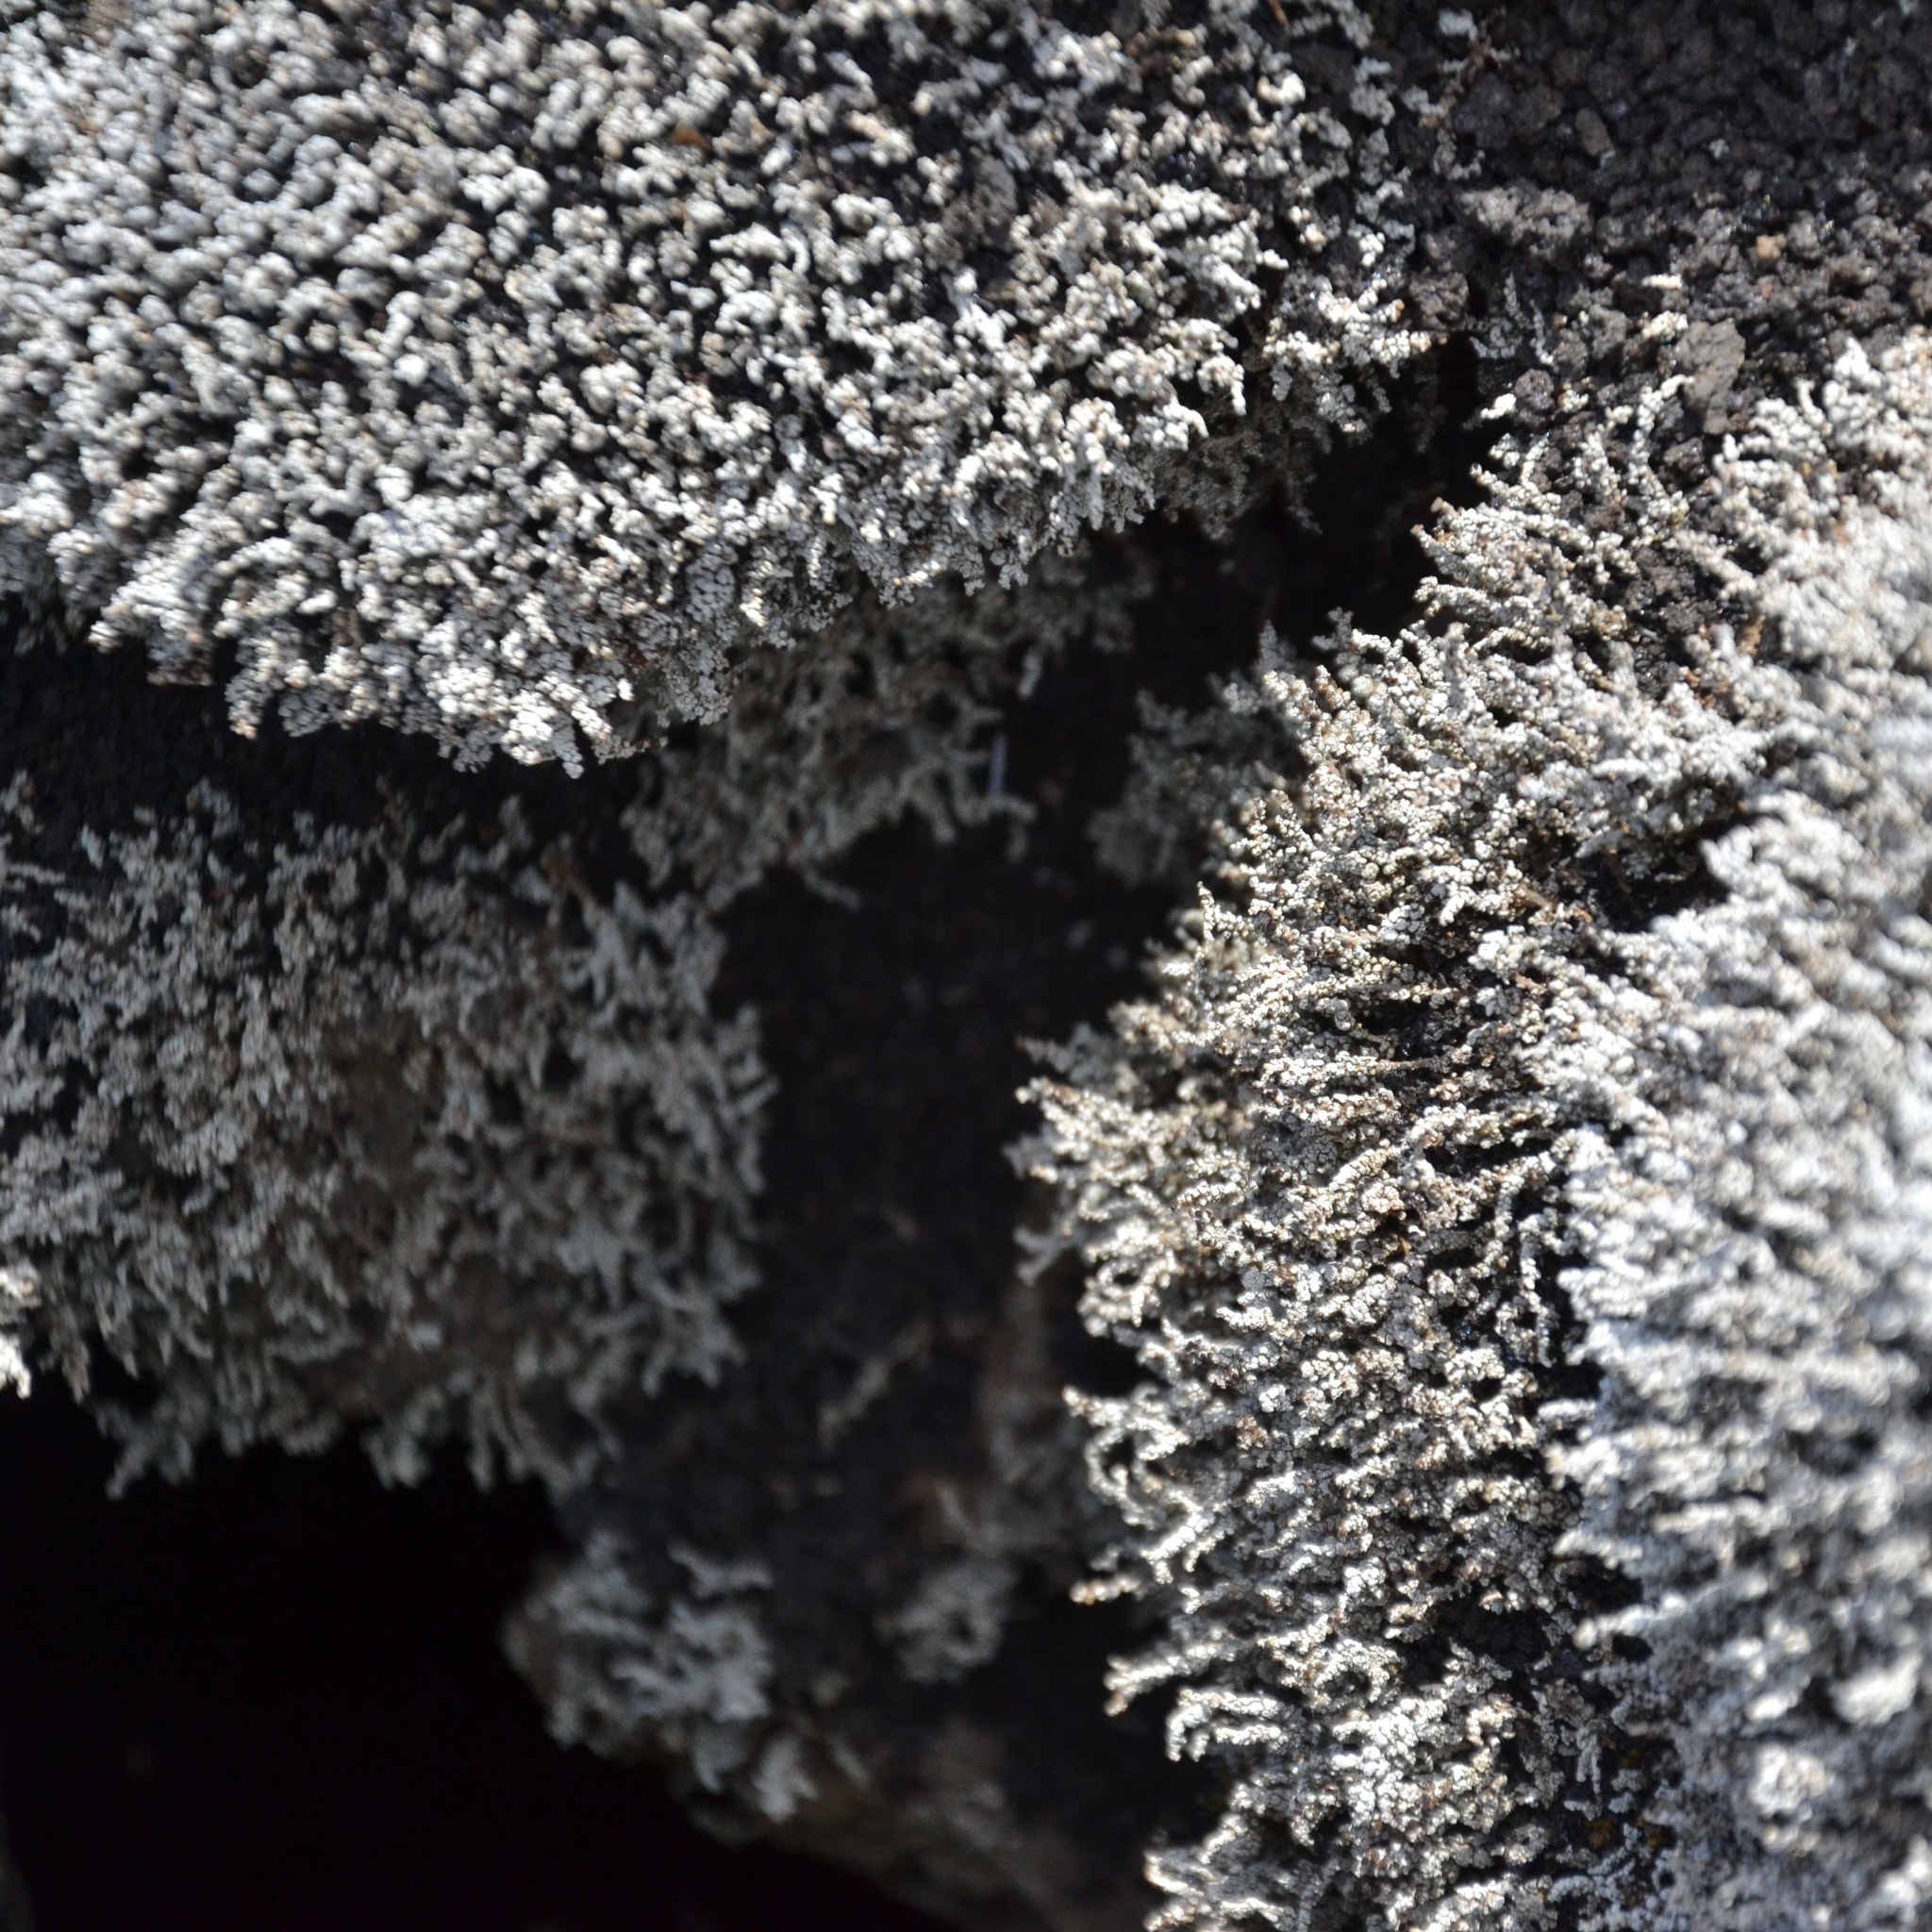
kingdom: Fungi
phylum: Ascomycota
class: Lecanoromycetes
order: Lecanorales
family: Stereocaulaceae
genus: Stereocaulon
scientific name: Stereocaulon vesuvianum
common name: Variegated foam lichen
